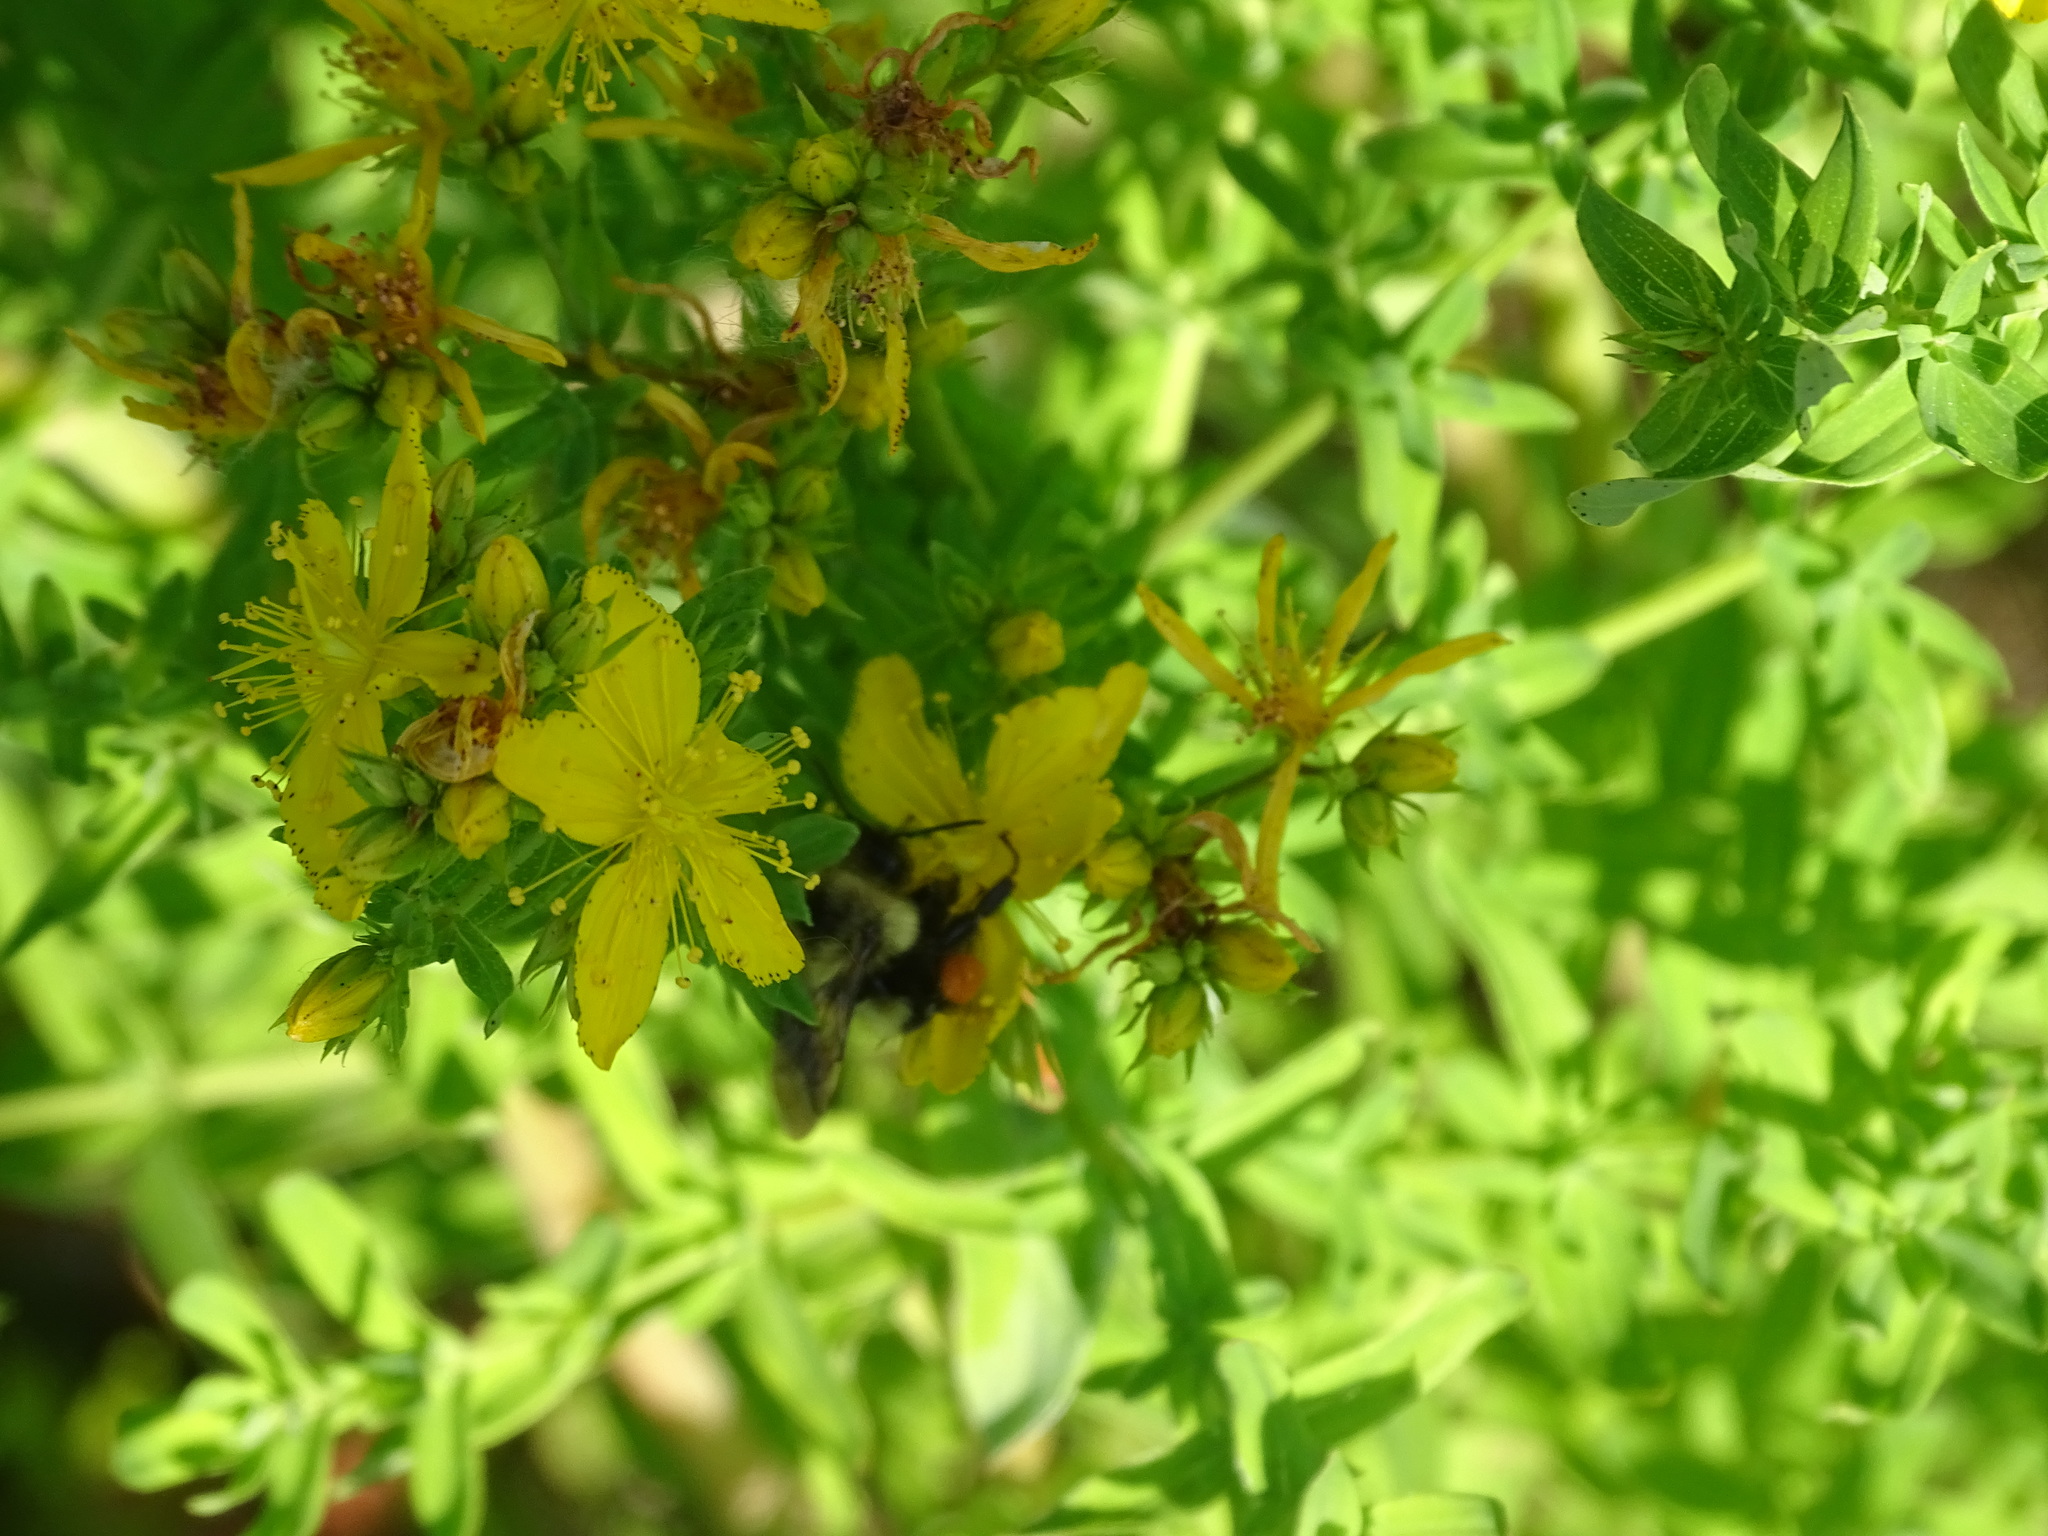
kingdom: Animalia
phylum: Arthropoda
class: Insecta
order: Hymenoptera
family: Apidae
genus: Bombus
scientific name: Bombus bimaculatus
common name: Two-spotted bumble bee
